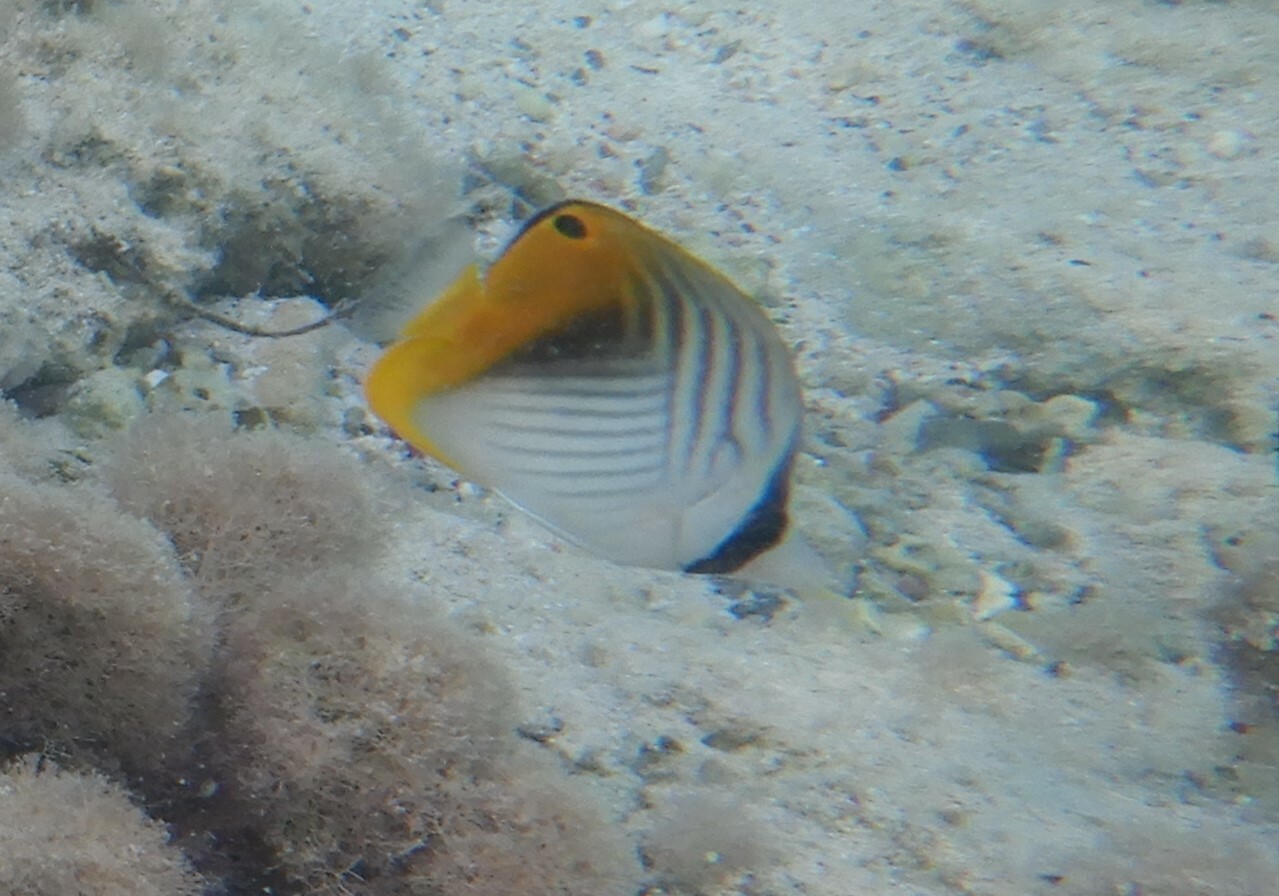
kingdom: Animalia
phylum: Chordata
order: Perciformes
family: Chaetodontidae
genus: Chaetodon
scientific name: Chaetodon auriga
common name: Threadfin butterflyfish
